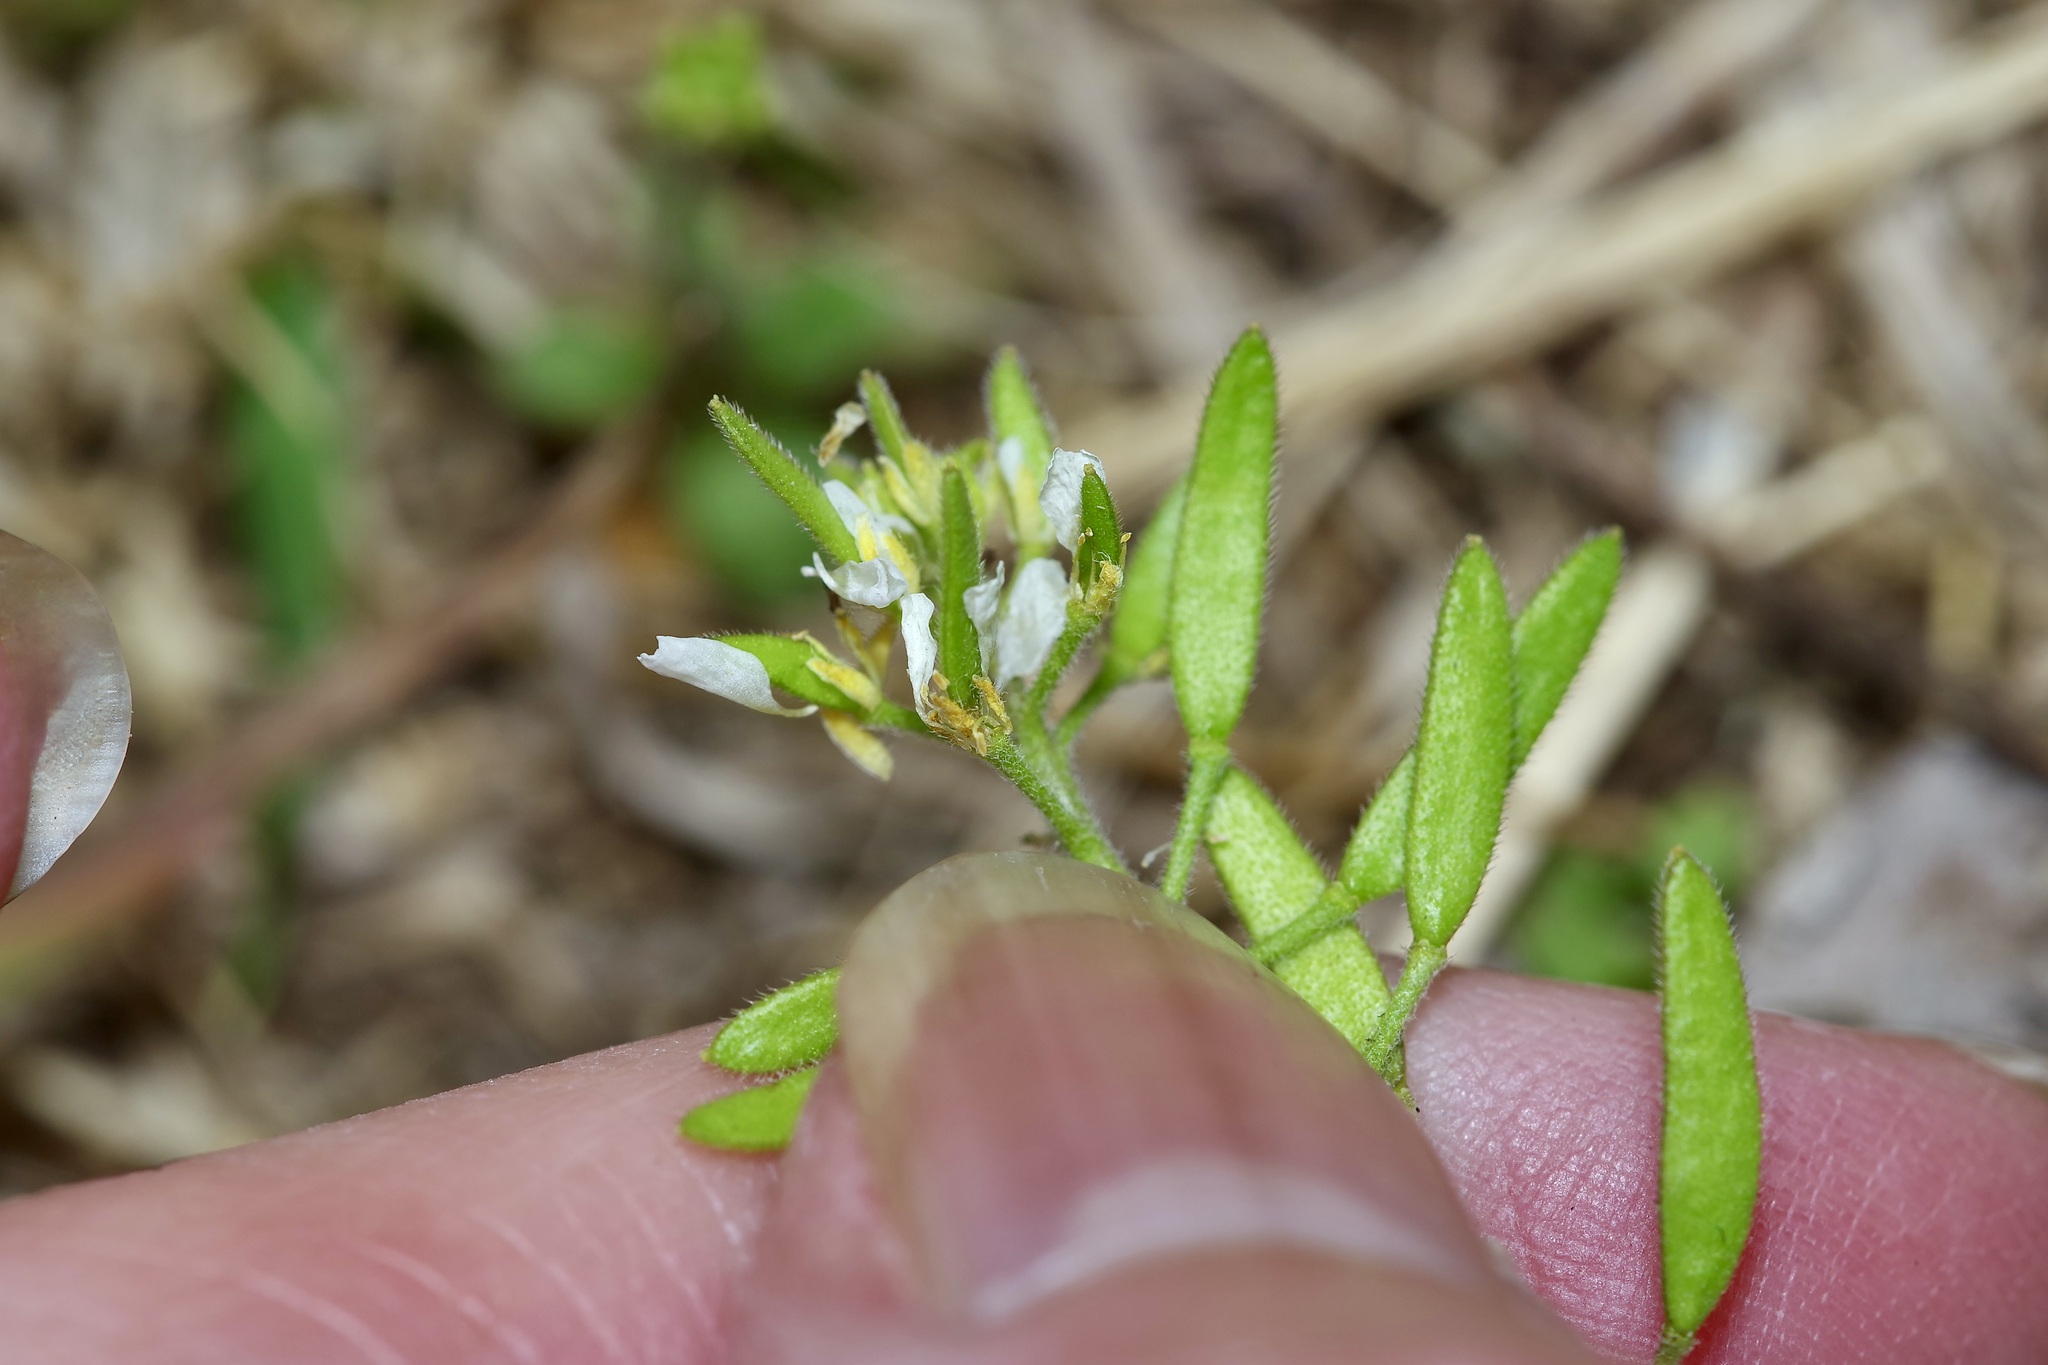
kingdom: Plantae
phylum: Tracheophyta
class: Magnoliopsida
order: Brassicales
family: Brassicaceae
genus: Tomostima
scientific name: Tomostima cuneifolia
